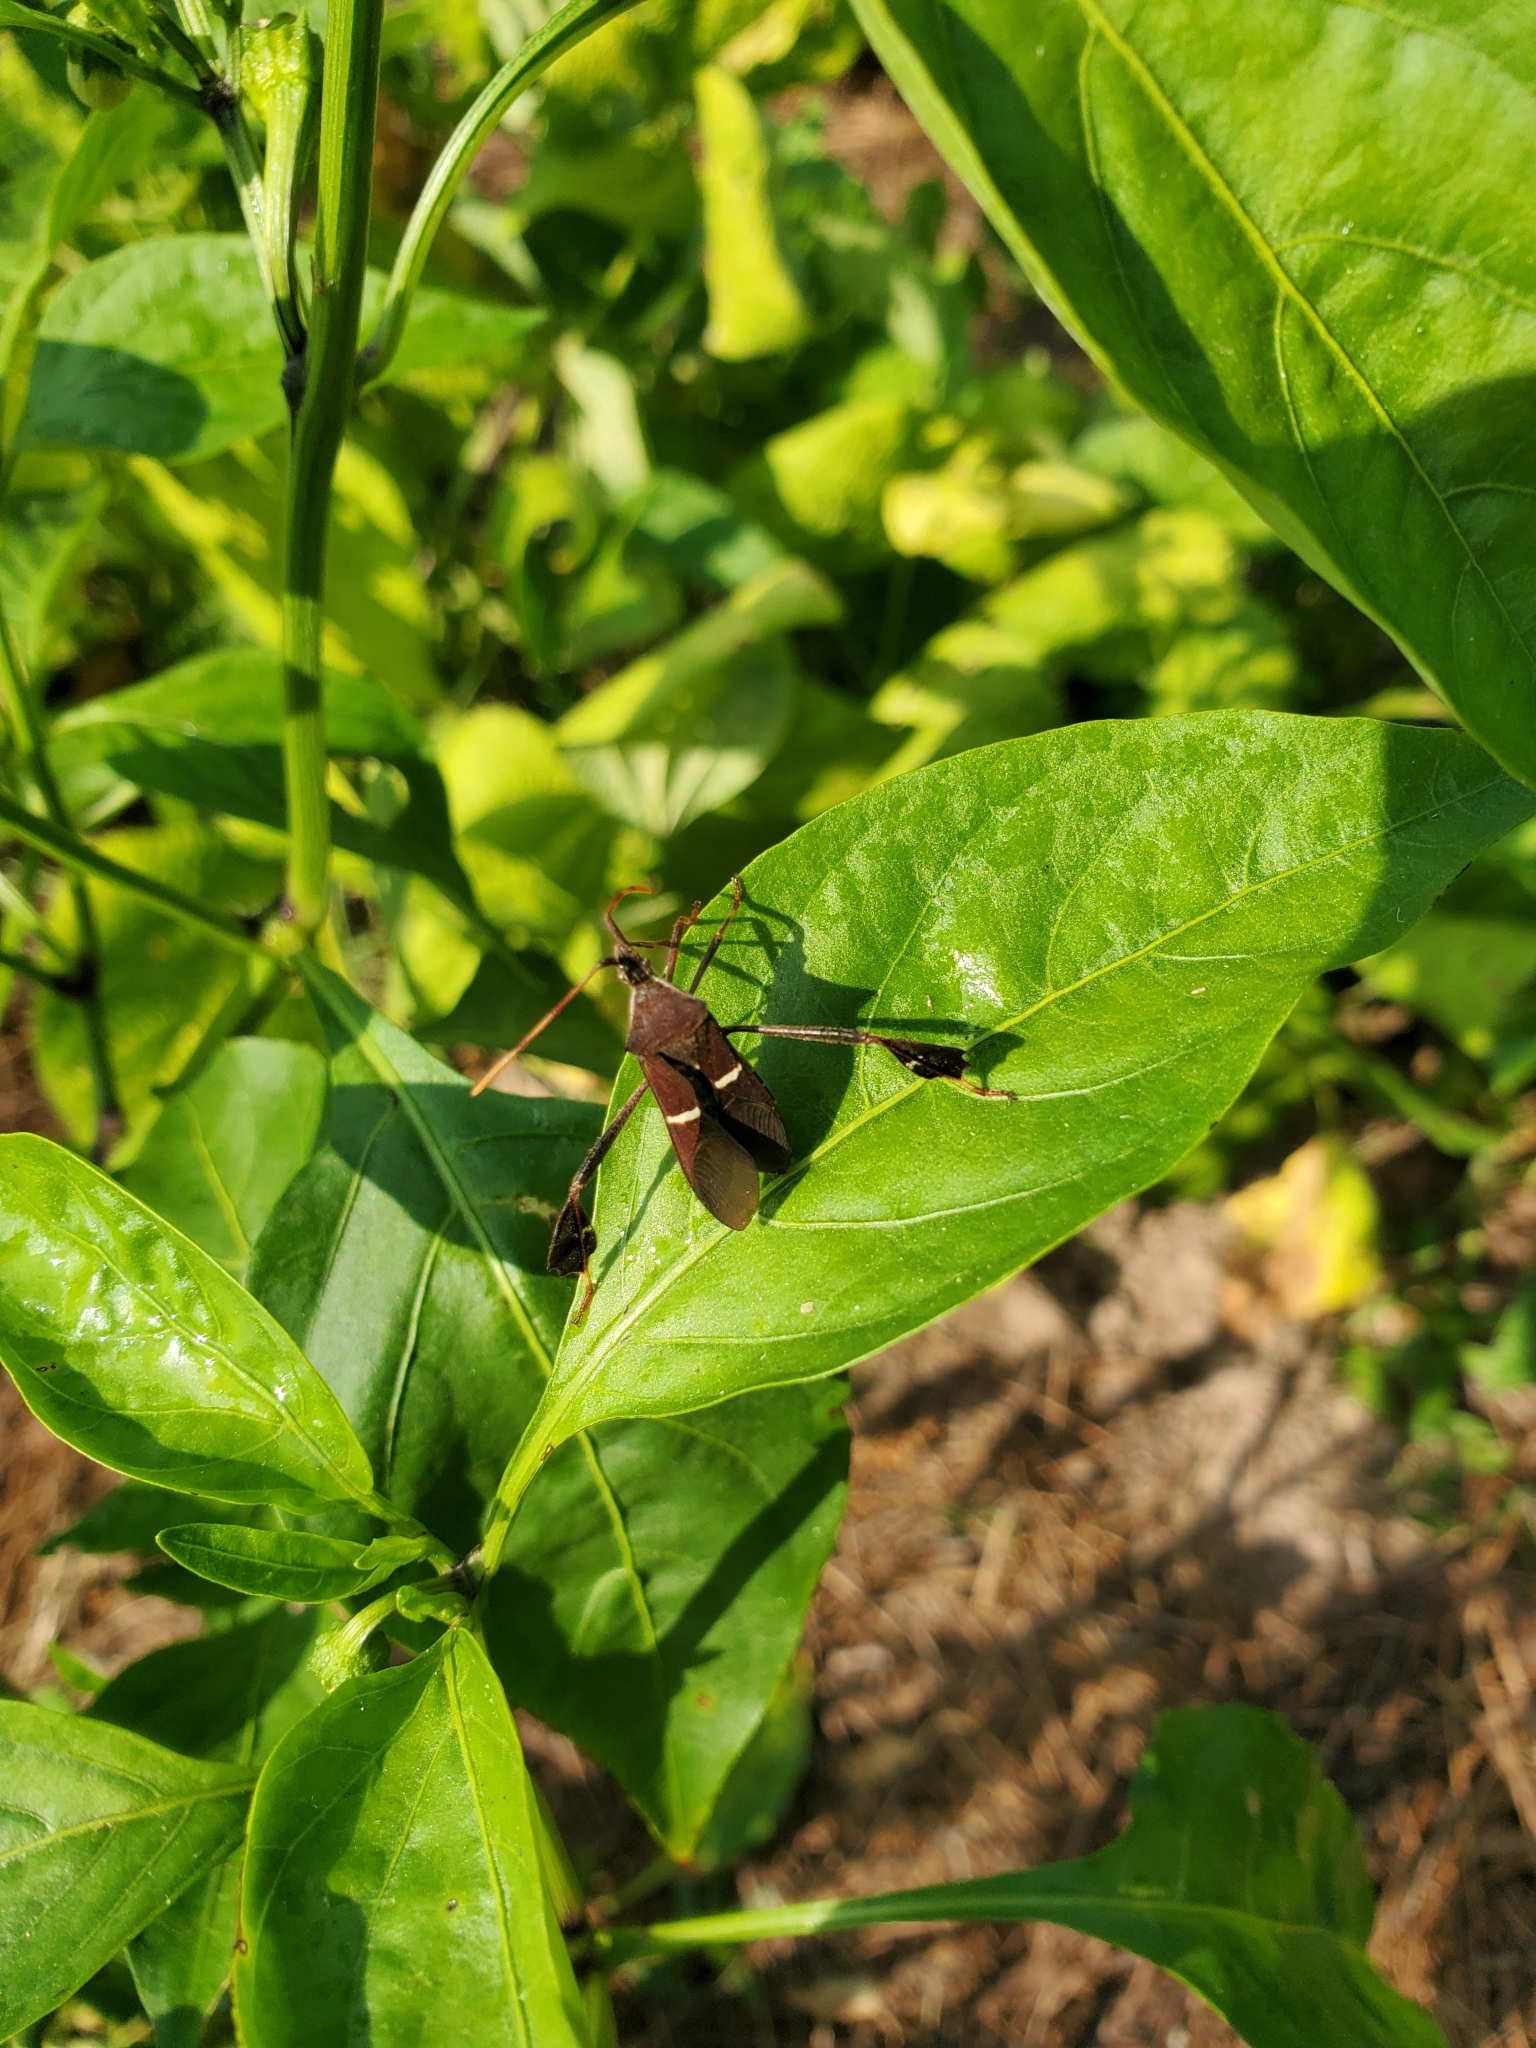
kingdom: Animalia
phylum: Arthropoda
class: Insecta
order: Hemiptera
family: Coreidae
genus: Leptoglossus
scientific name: Leptoglossus phyllopus
